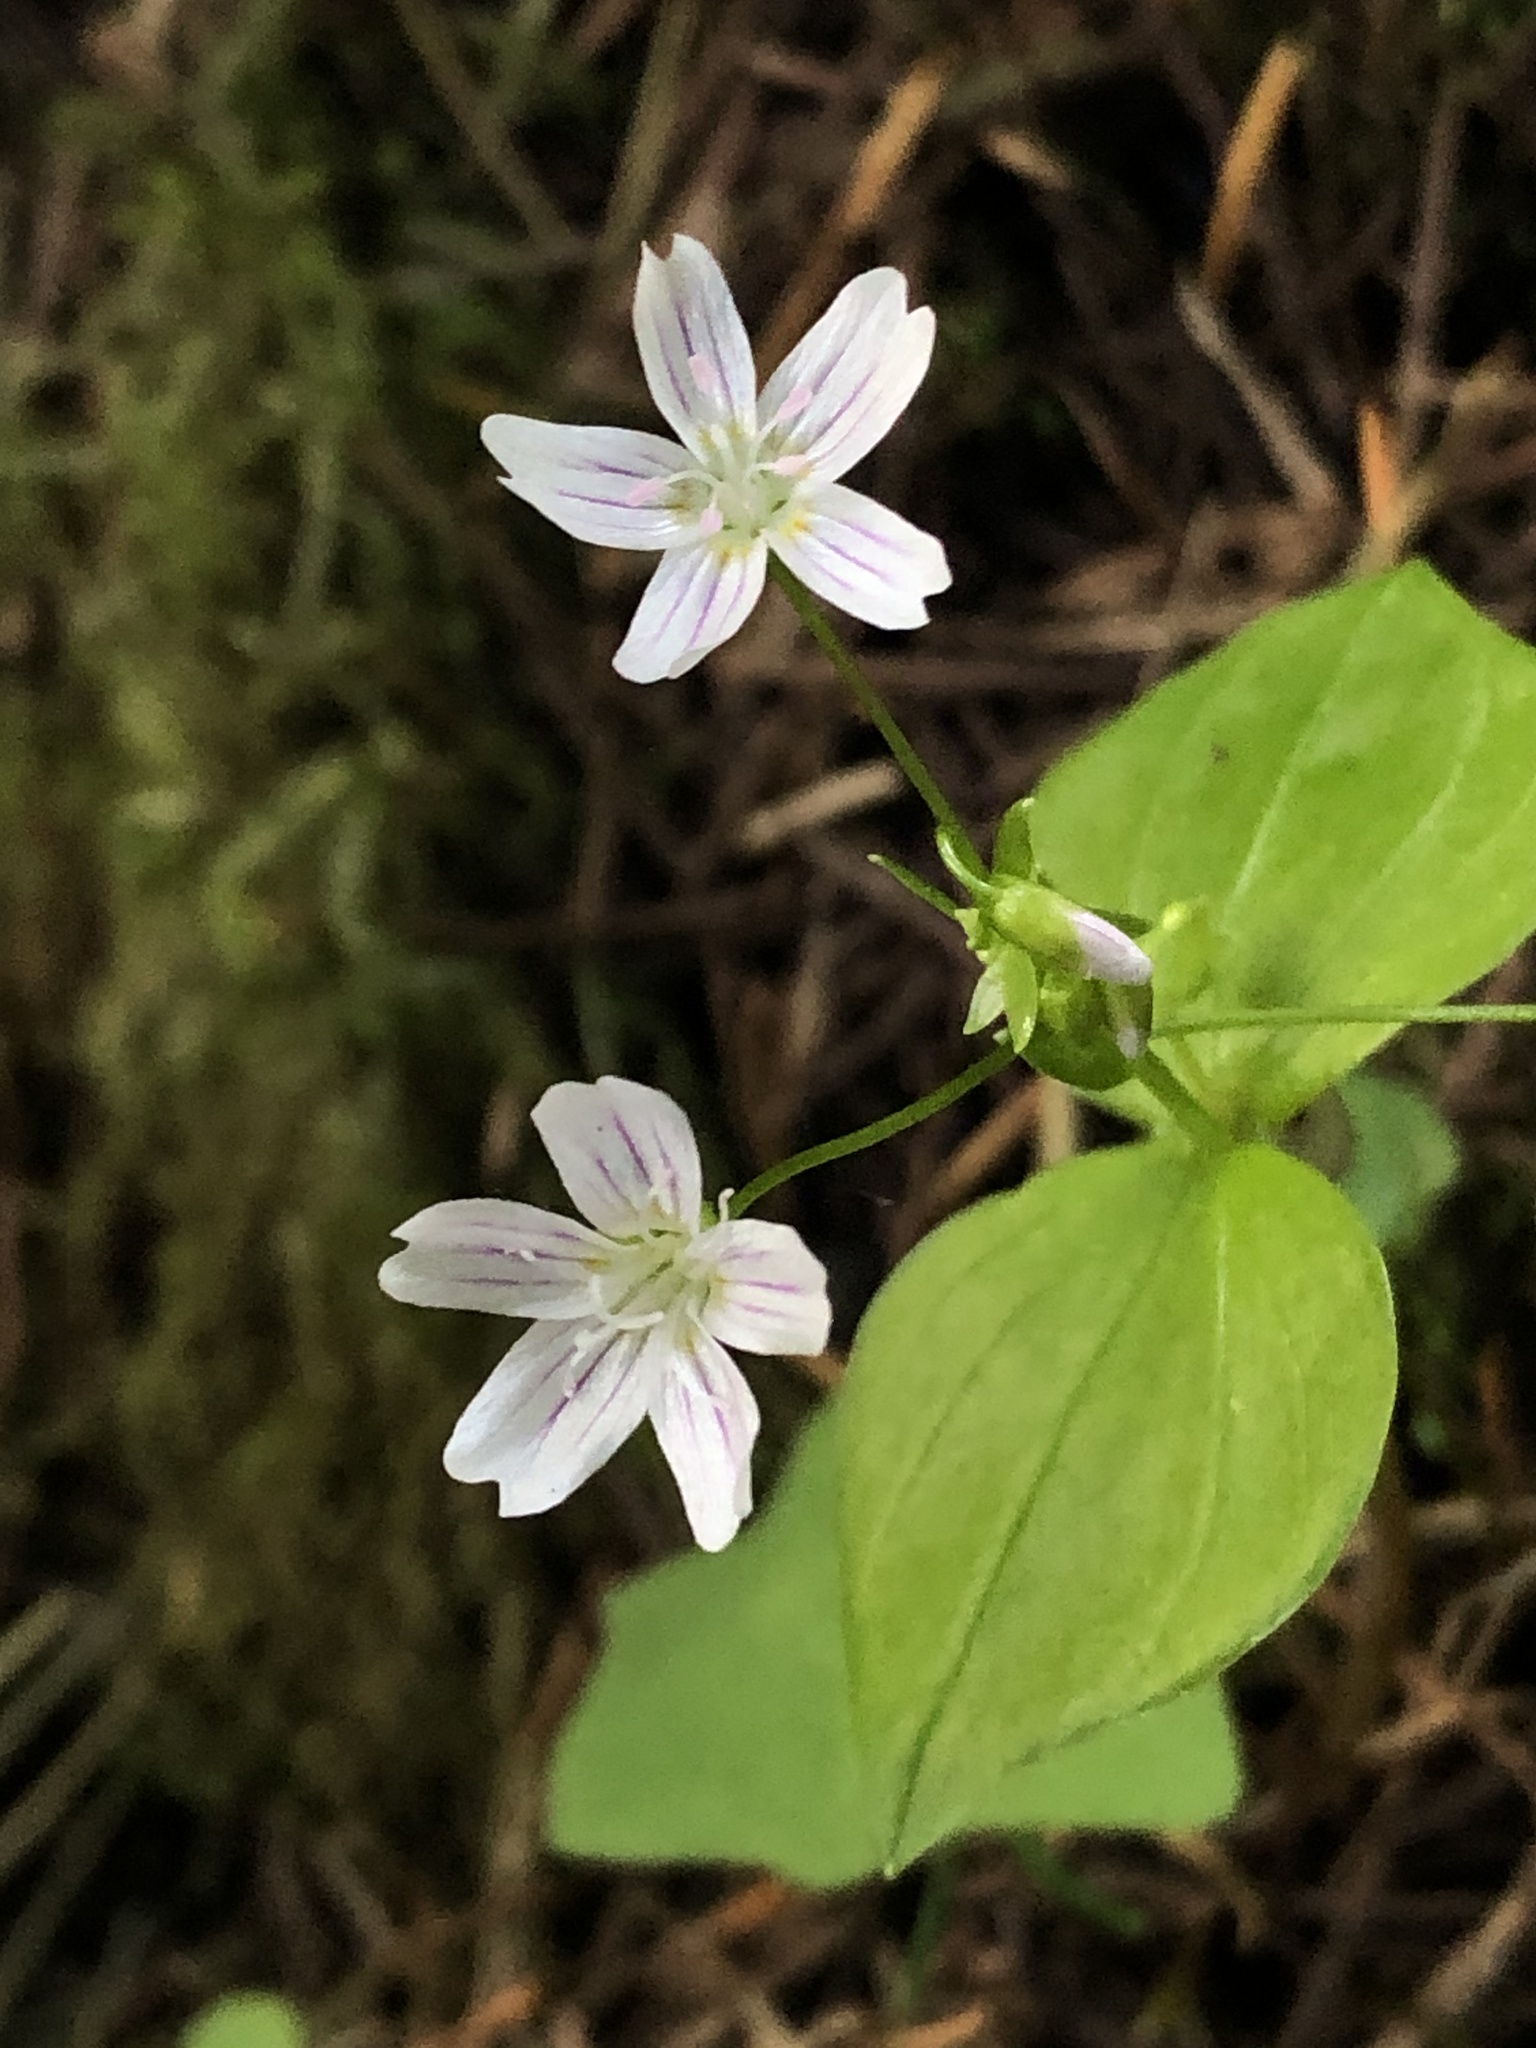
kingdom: Plantae
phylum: Tracheophyta
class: Magnoliopsida
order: Caryophyllales
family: Montiaceae
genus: Claytonia
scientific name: Claytonia sibirica
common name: Pink purslane
